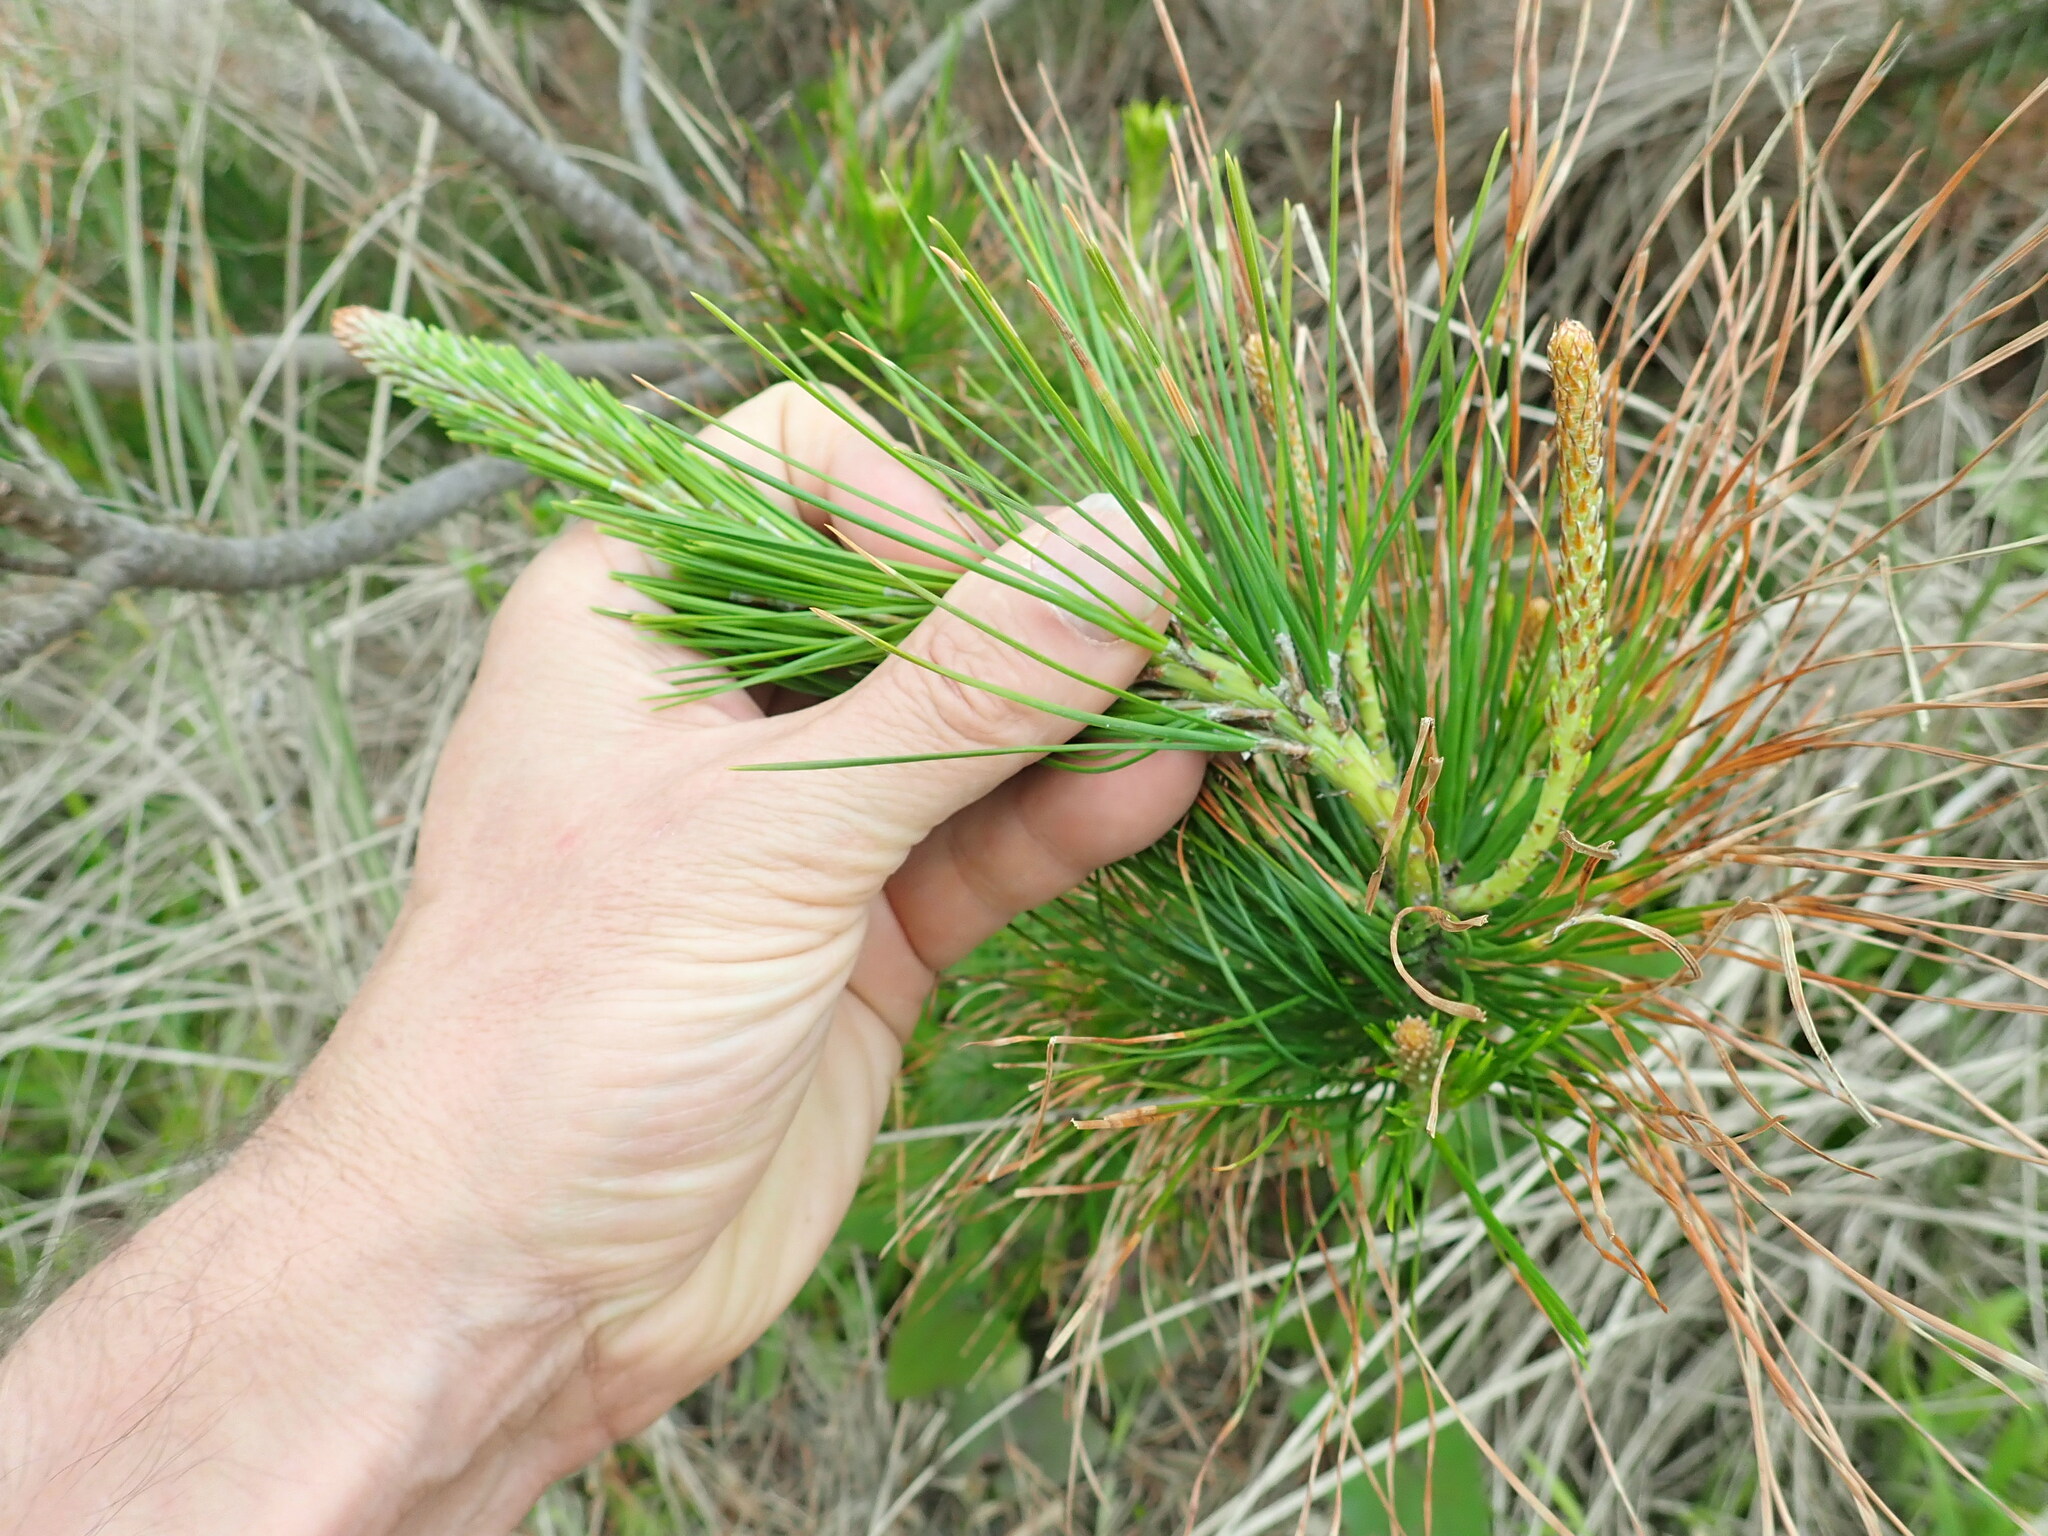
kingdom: Plantae
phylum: Tracheophyta
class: Pinopsida
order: Pinales
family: Pinaceae
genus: Pinus
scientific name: Pinus radiata
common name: Monterey pine
